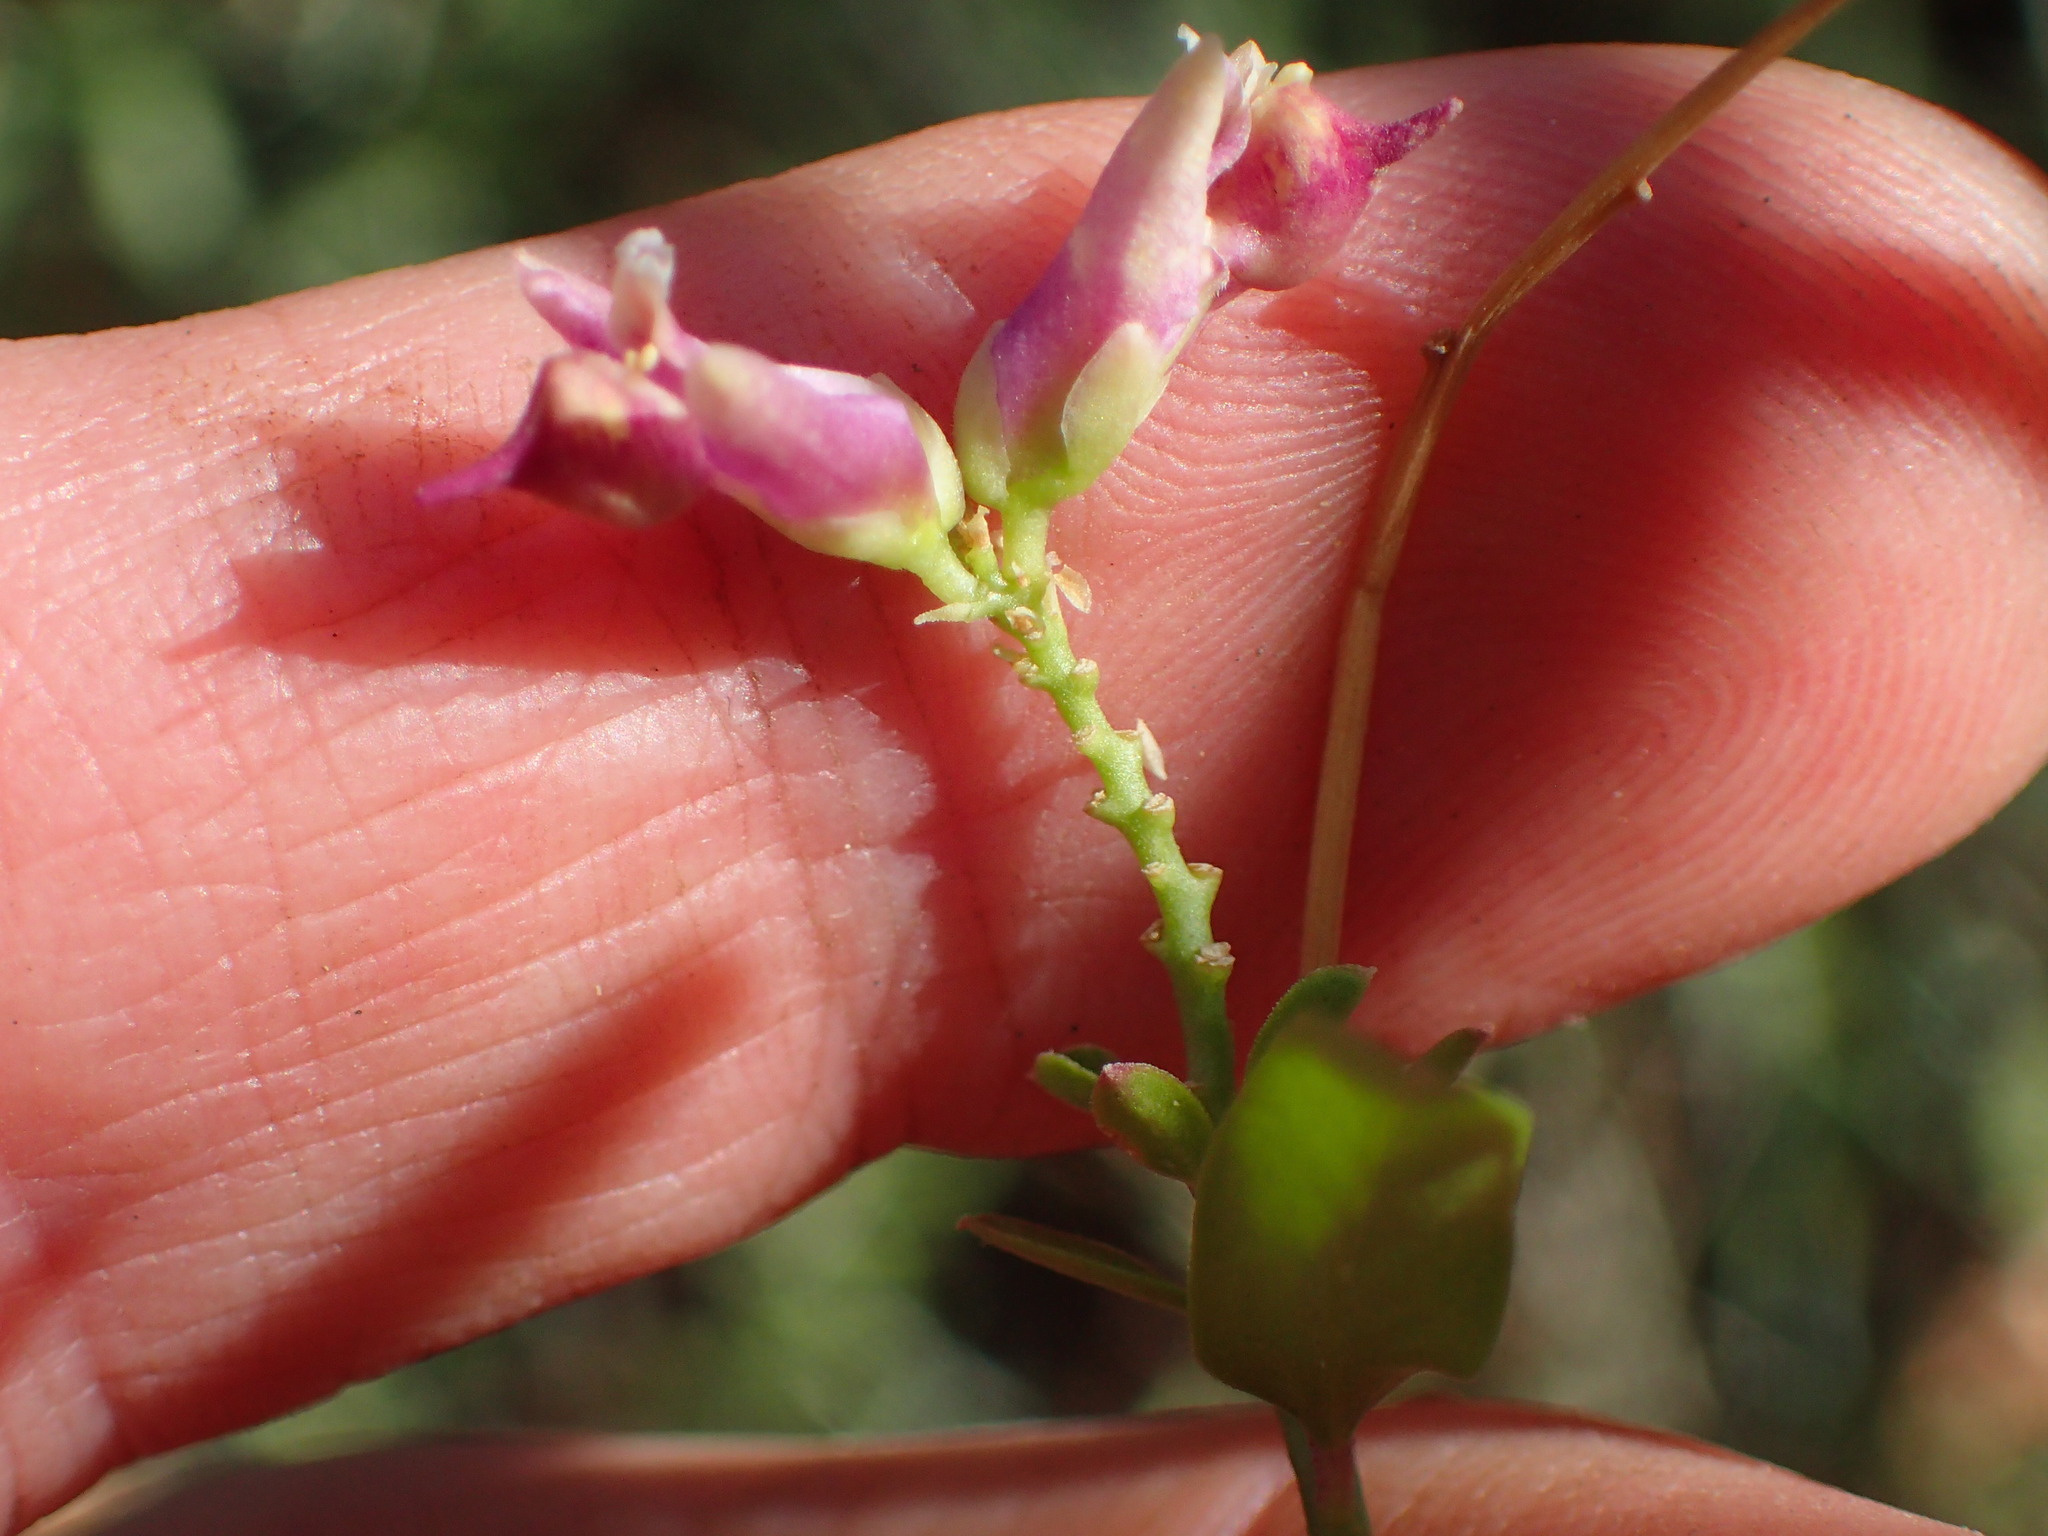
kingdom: Plantae
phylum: Tracheophyta
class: Magnoliopsida
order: Fabales
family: Polygalaceae
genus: Rhinotropis
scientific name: Rhinotropis cornuta
